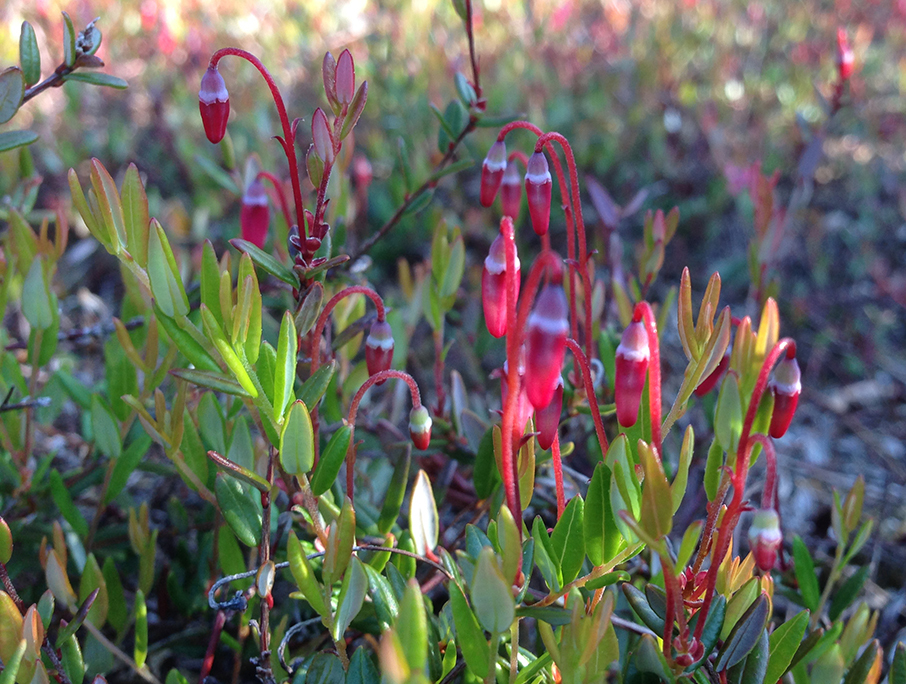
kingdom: Plantae
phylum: Tracheophyta
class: Magnoliopsida
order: Ericales
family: Ericaceae
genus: Vaccinium
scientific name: Vaccinium oxycoccos
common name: Cranberry
